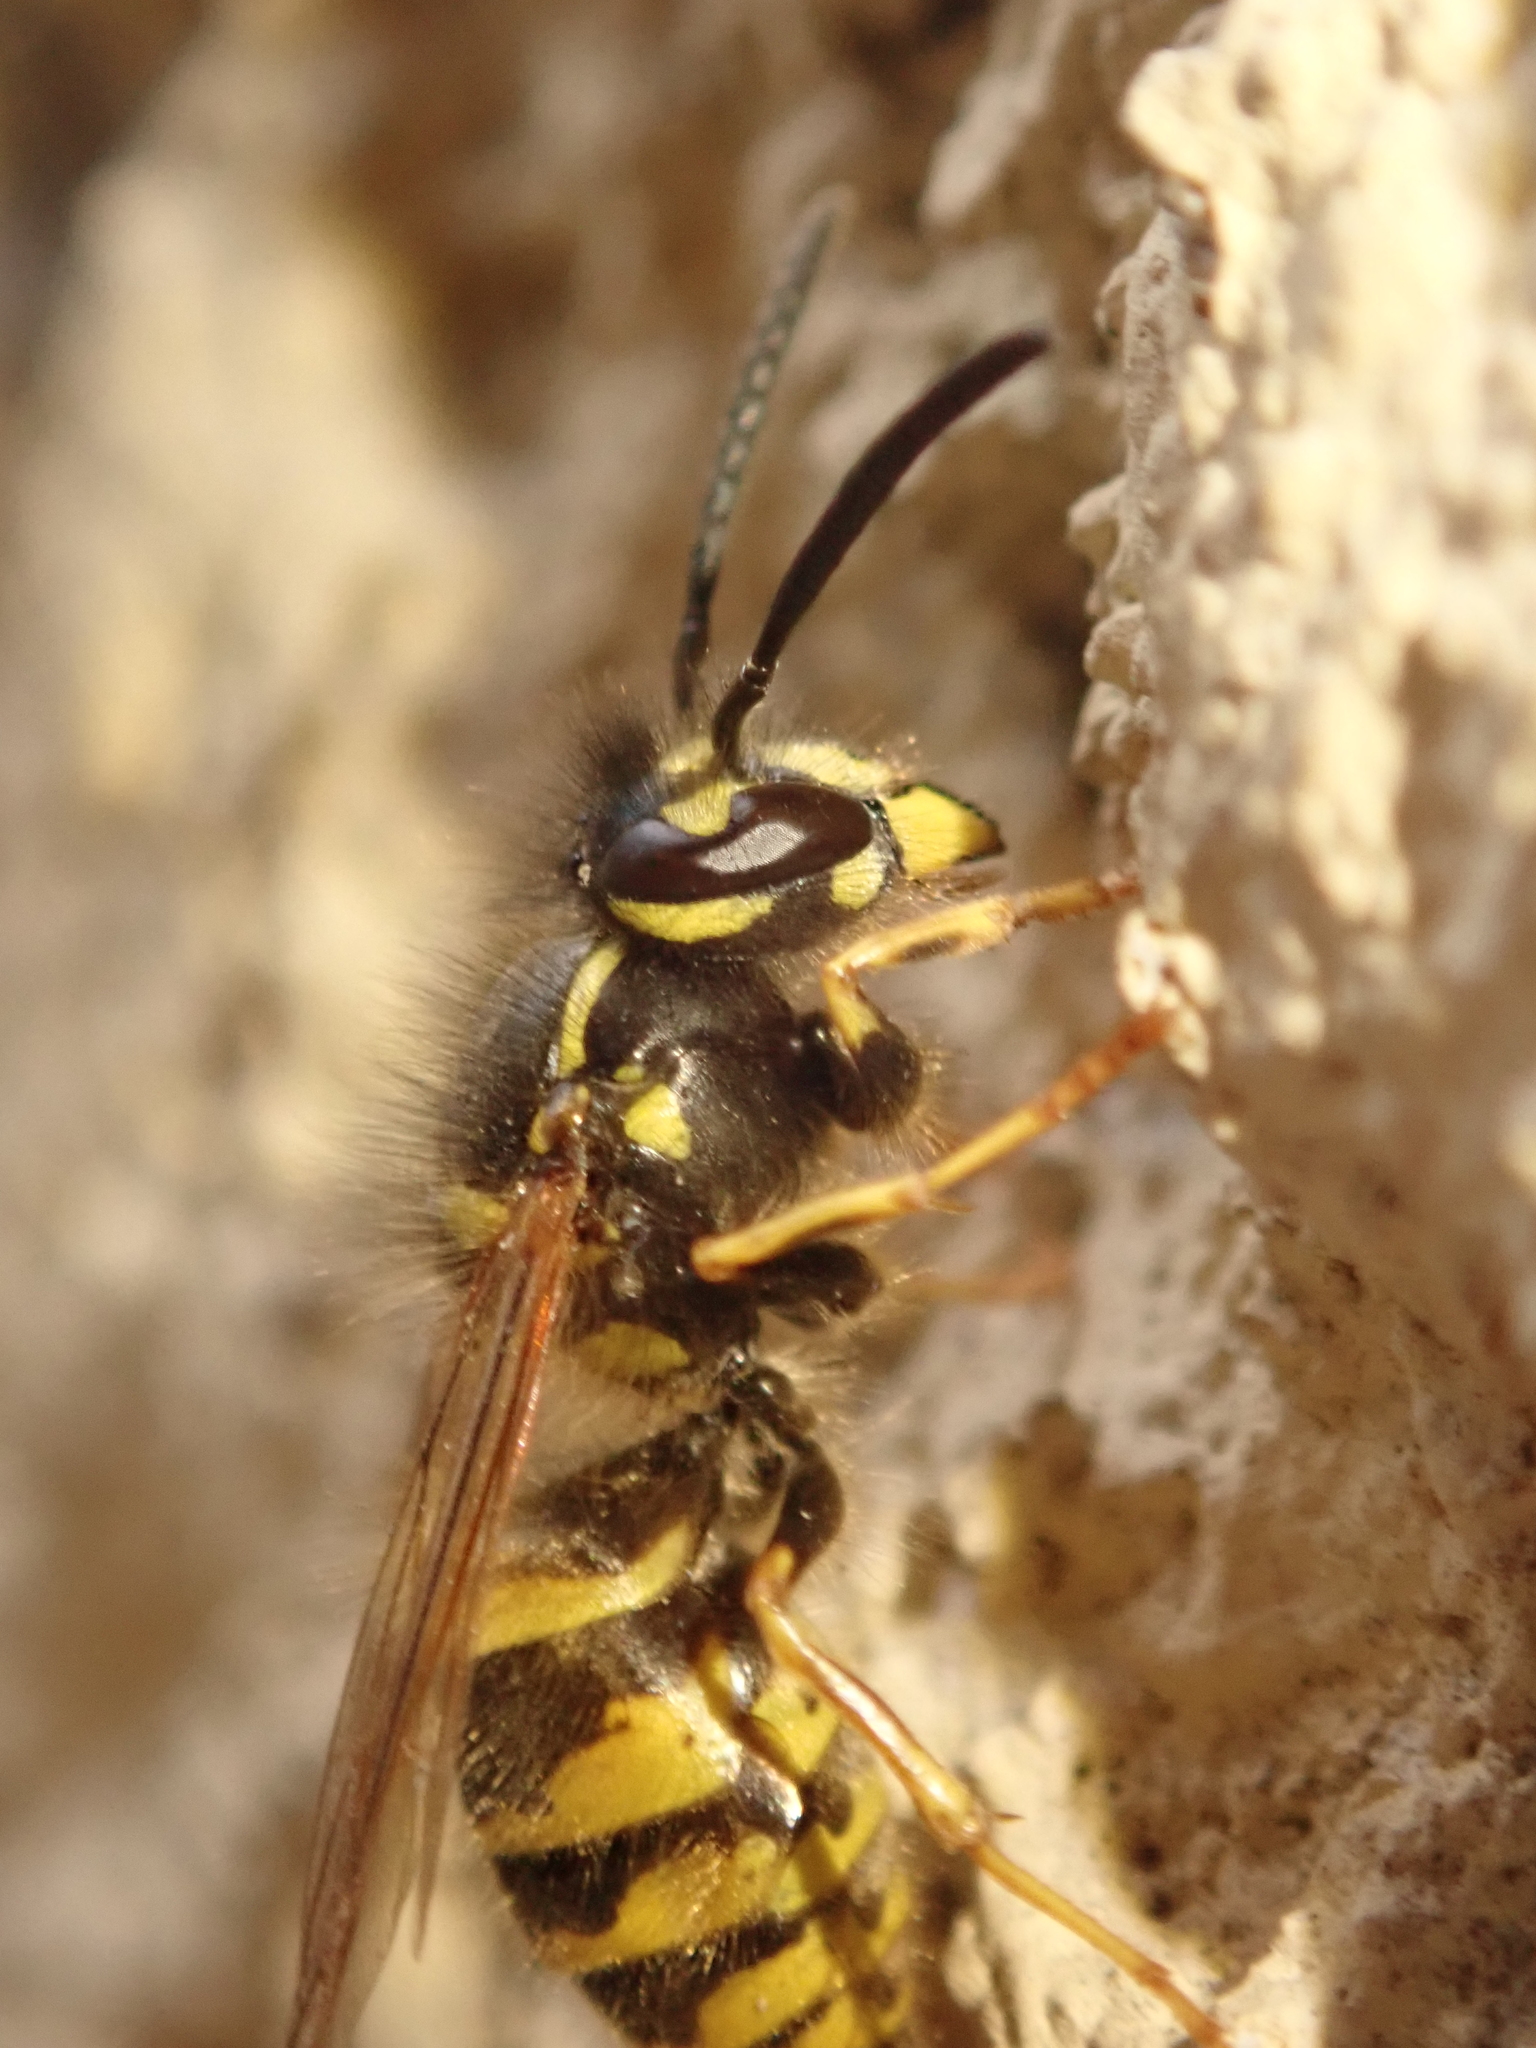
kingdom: Animalia
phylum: Arthropoda
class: Insecta
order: Hymenoptera
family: Vespidae
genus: Vespula
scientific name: Vespula vulgaris
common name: Common wasp
